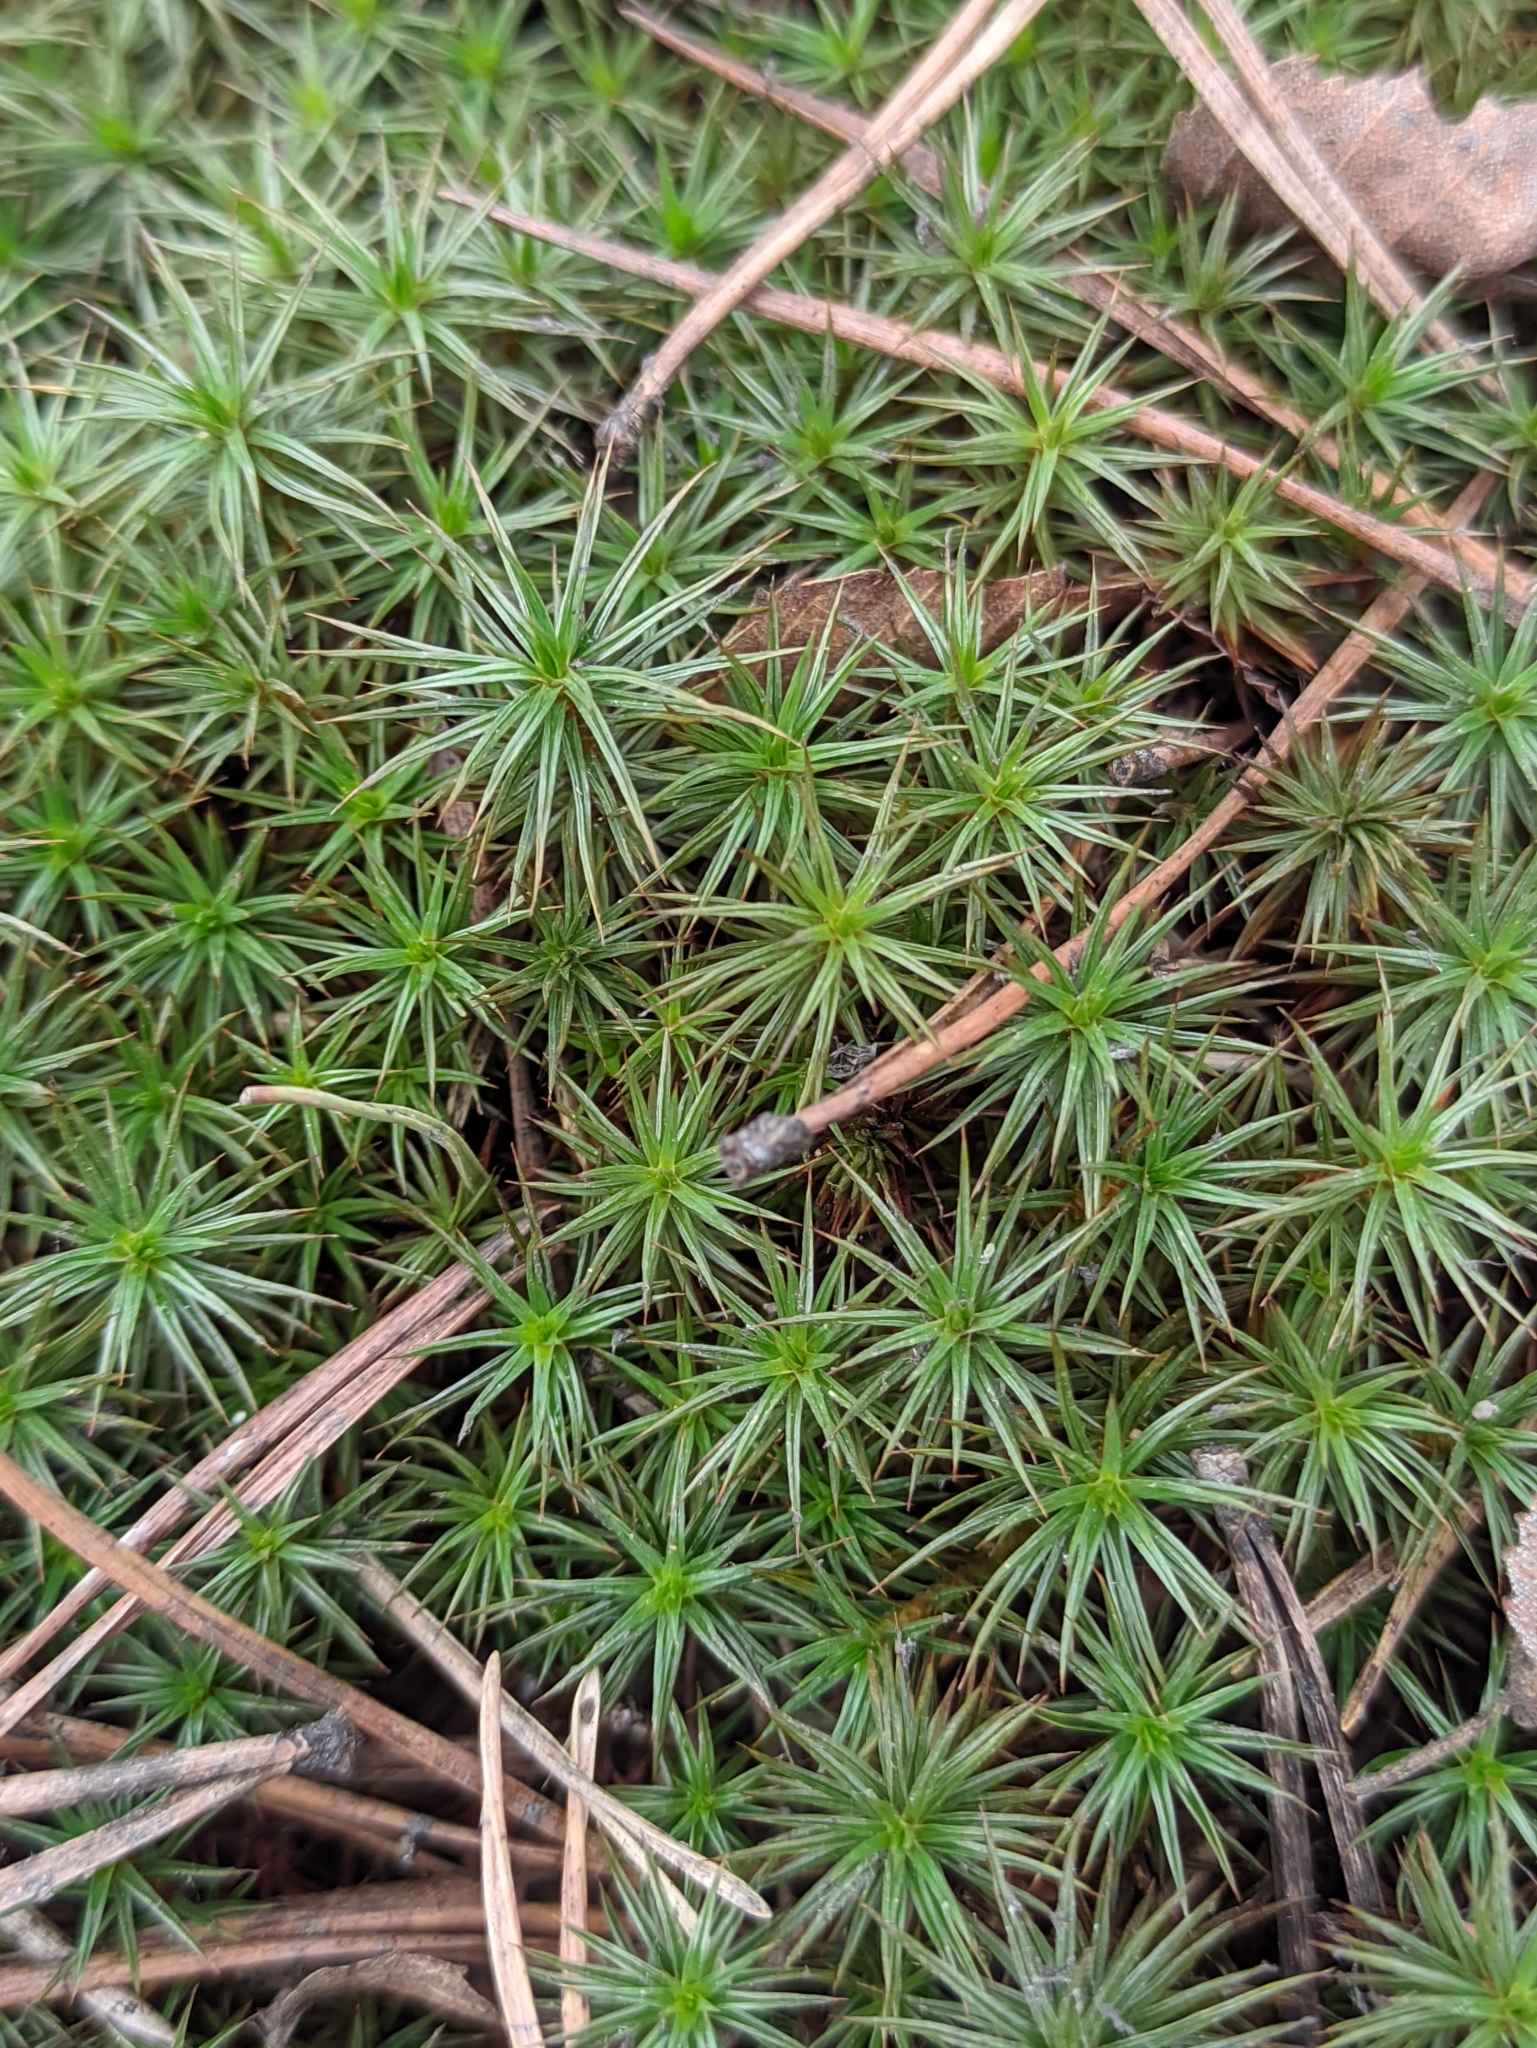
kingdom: Plantae
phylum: Bryophyta
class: Polytrichopsida
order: Polytrichales
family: Polytrichaceae
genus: Polytrichum
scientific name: Polytrichum juniperinum
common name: Juniper haircap moss
